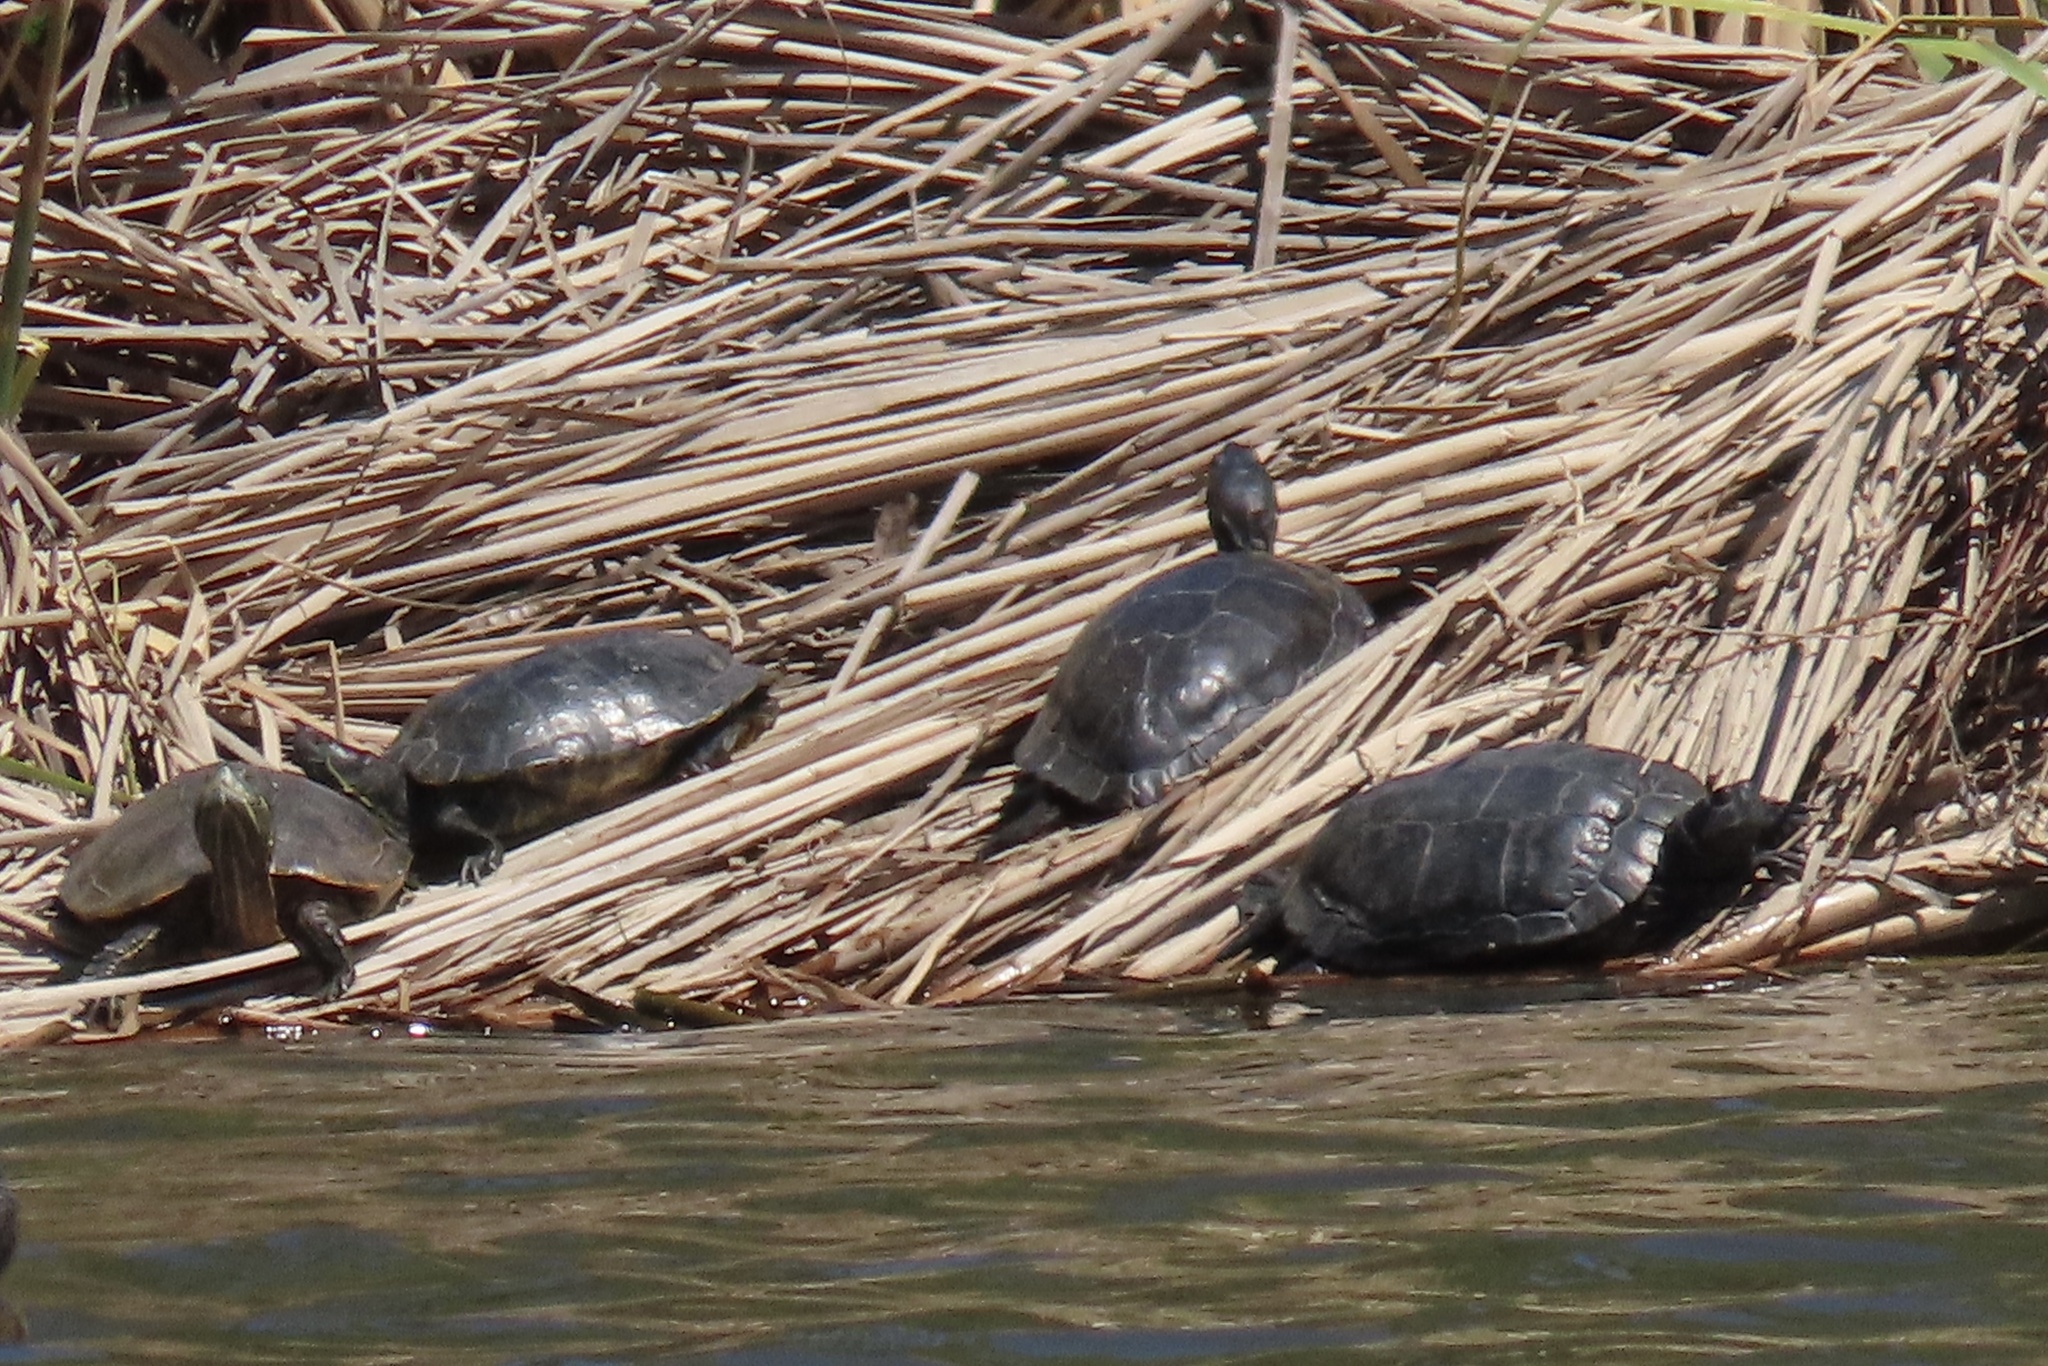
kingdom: Animalia
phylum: Chordata
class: Testudines
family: Emydidae
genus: Trachemys
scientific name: Trachemys scripta
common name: Slider
